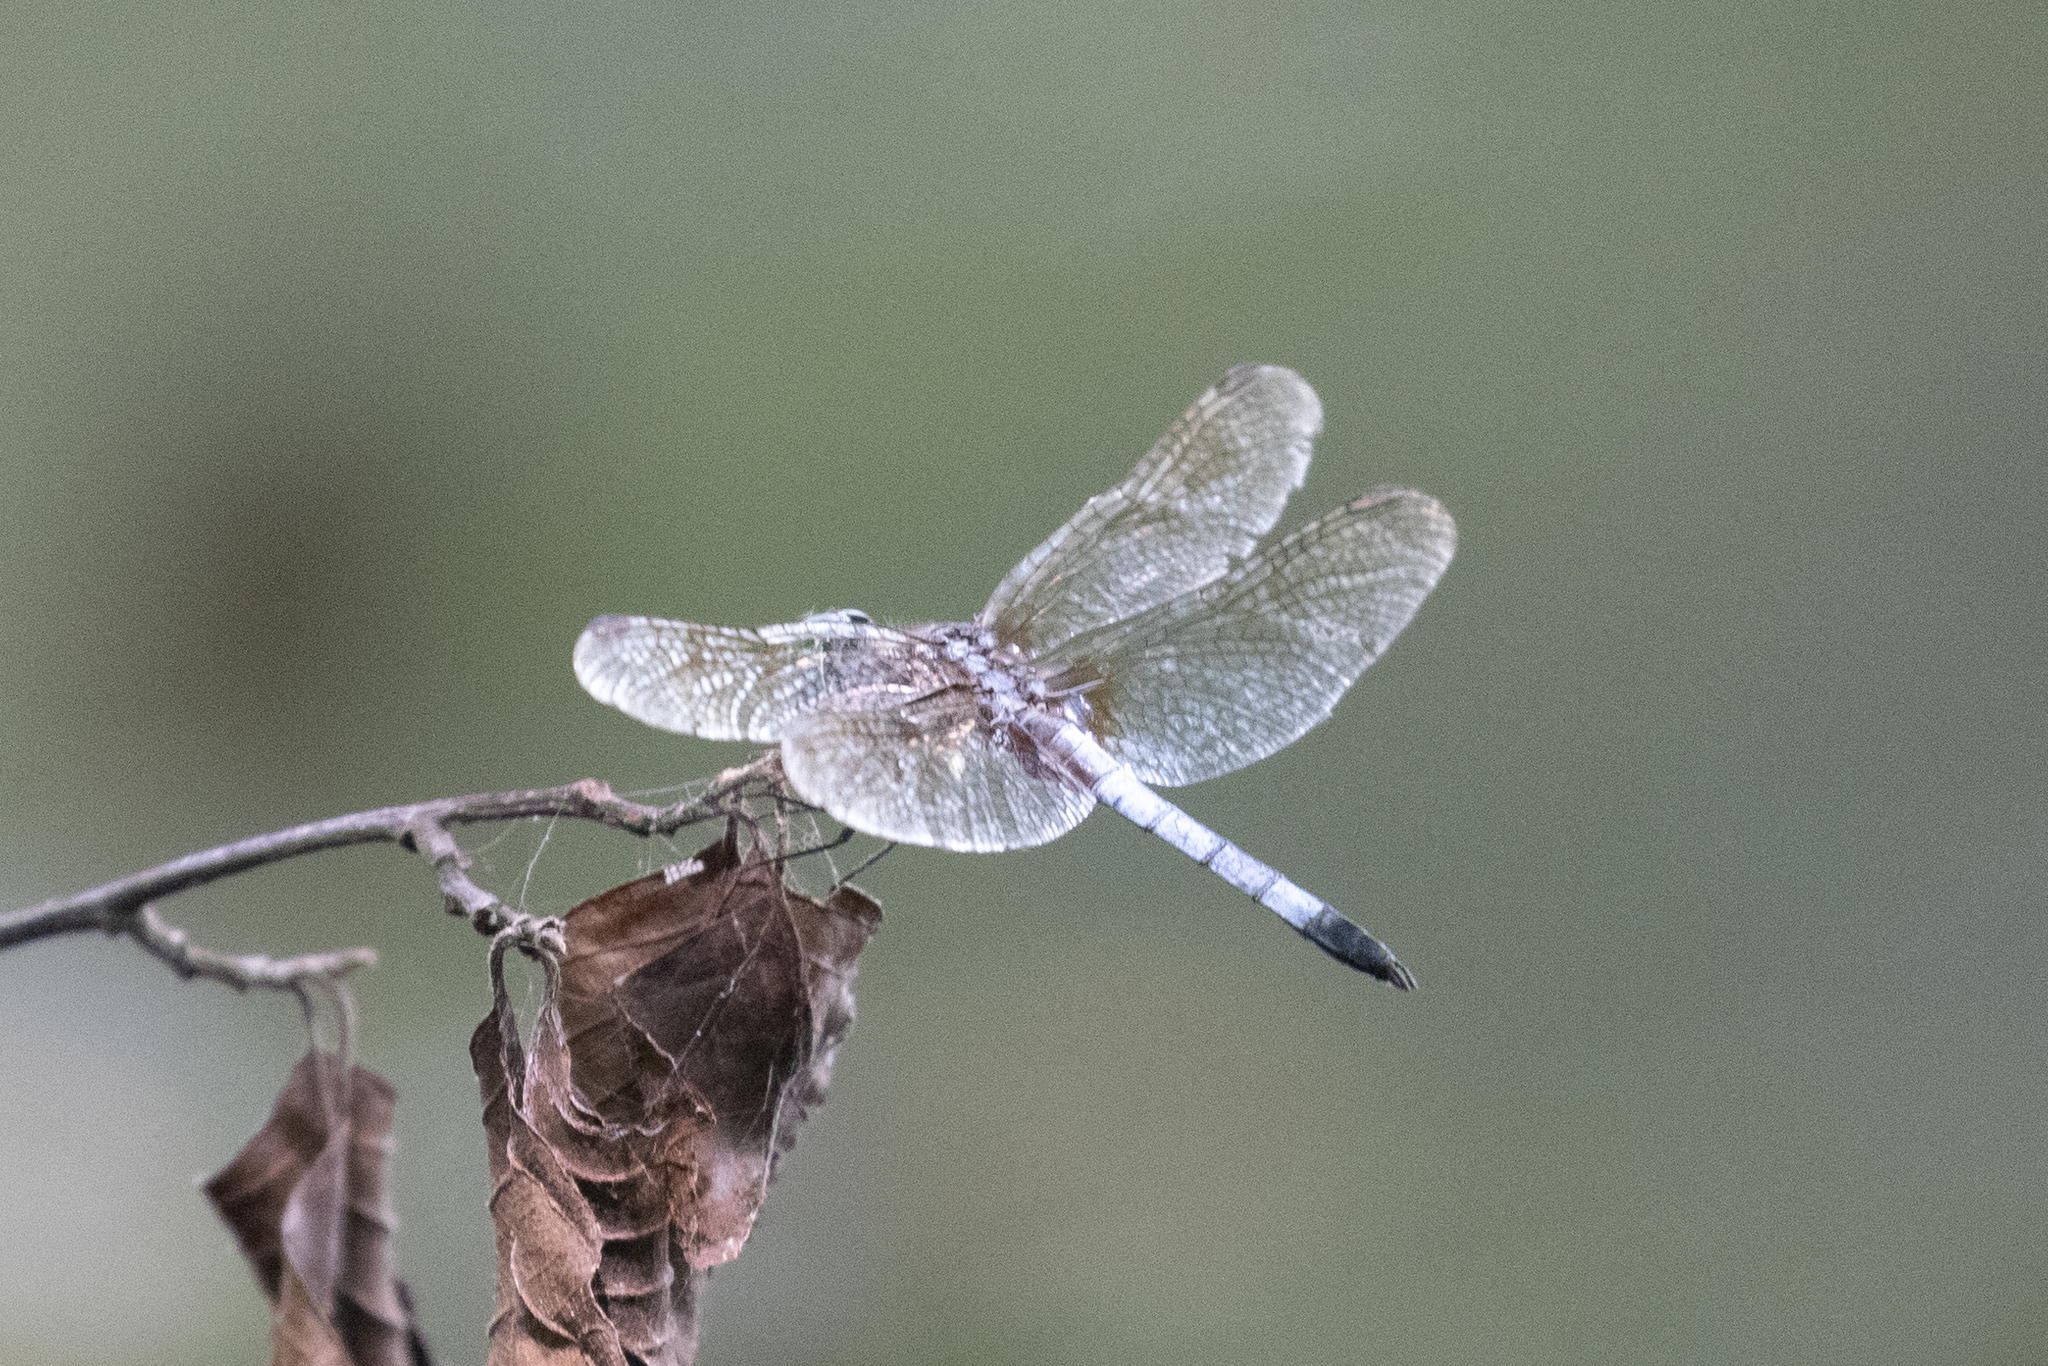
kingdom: Animalia
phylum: Arthropoda
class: Insecta
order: Odonata
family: Libellulidae
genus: Pachydiplax
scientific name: Pachydiplax longipennis
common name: Blue dasher
